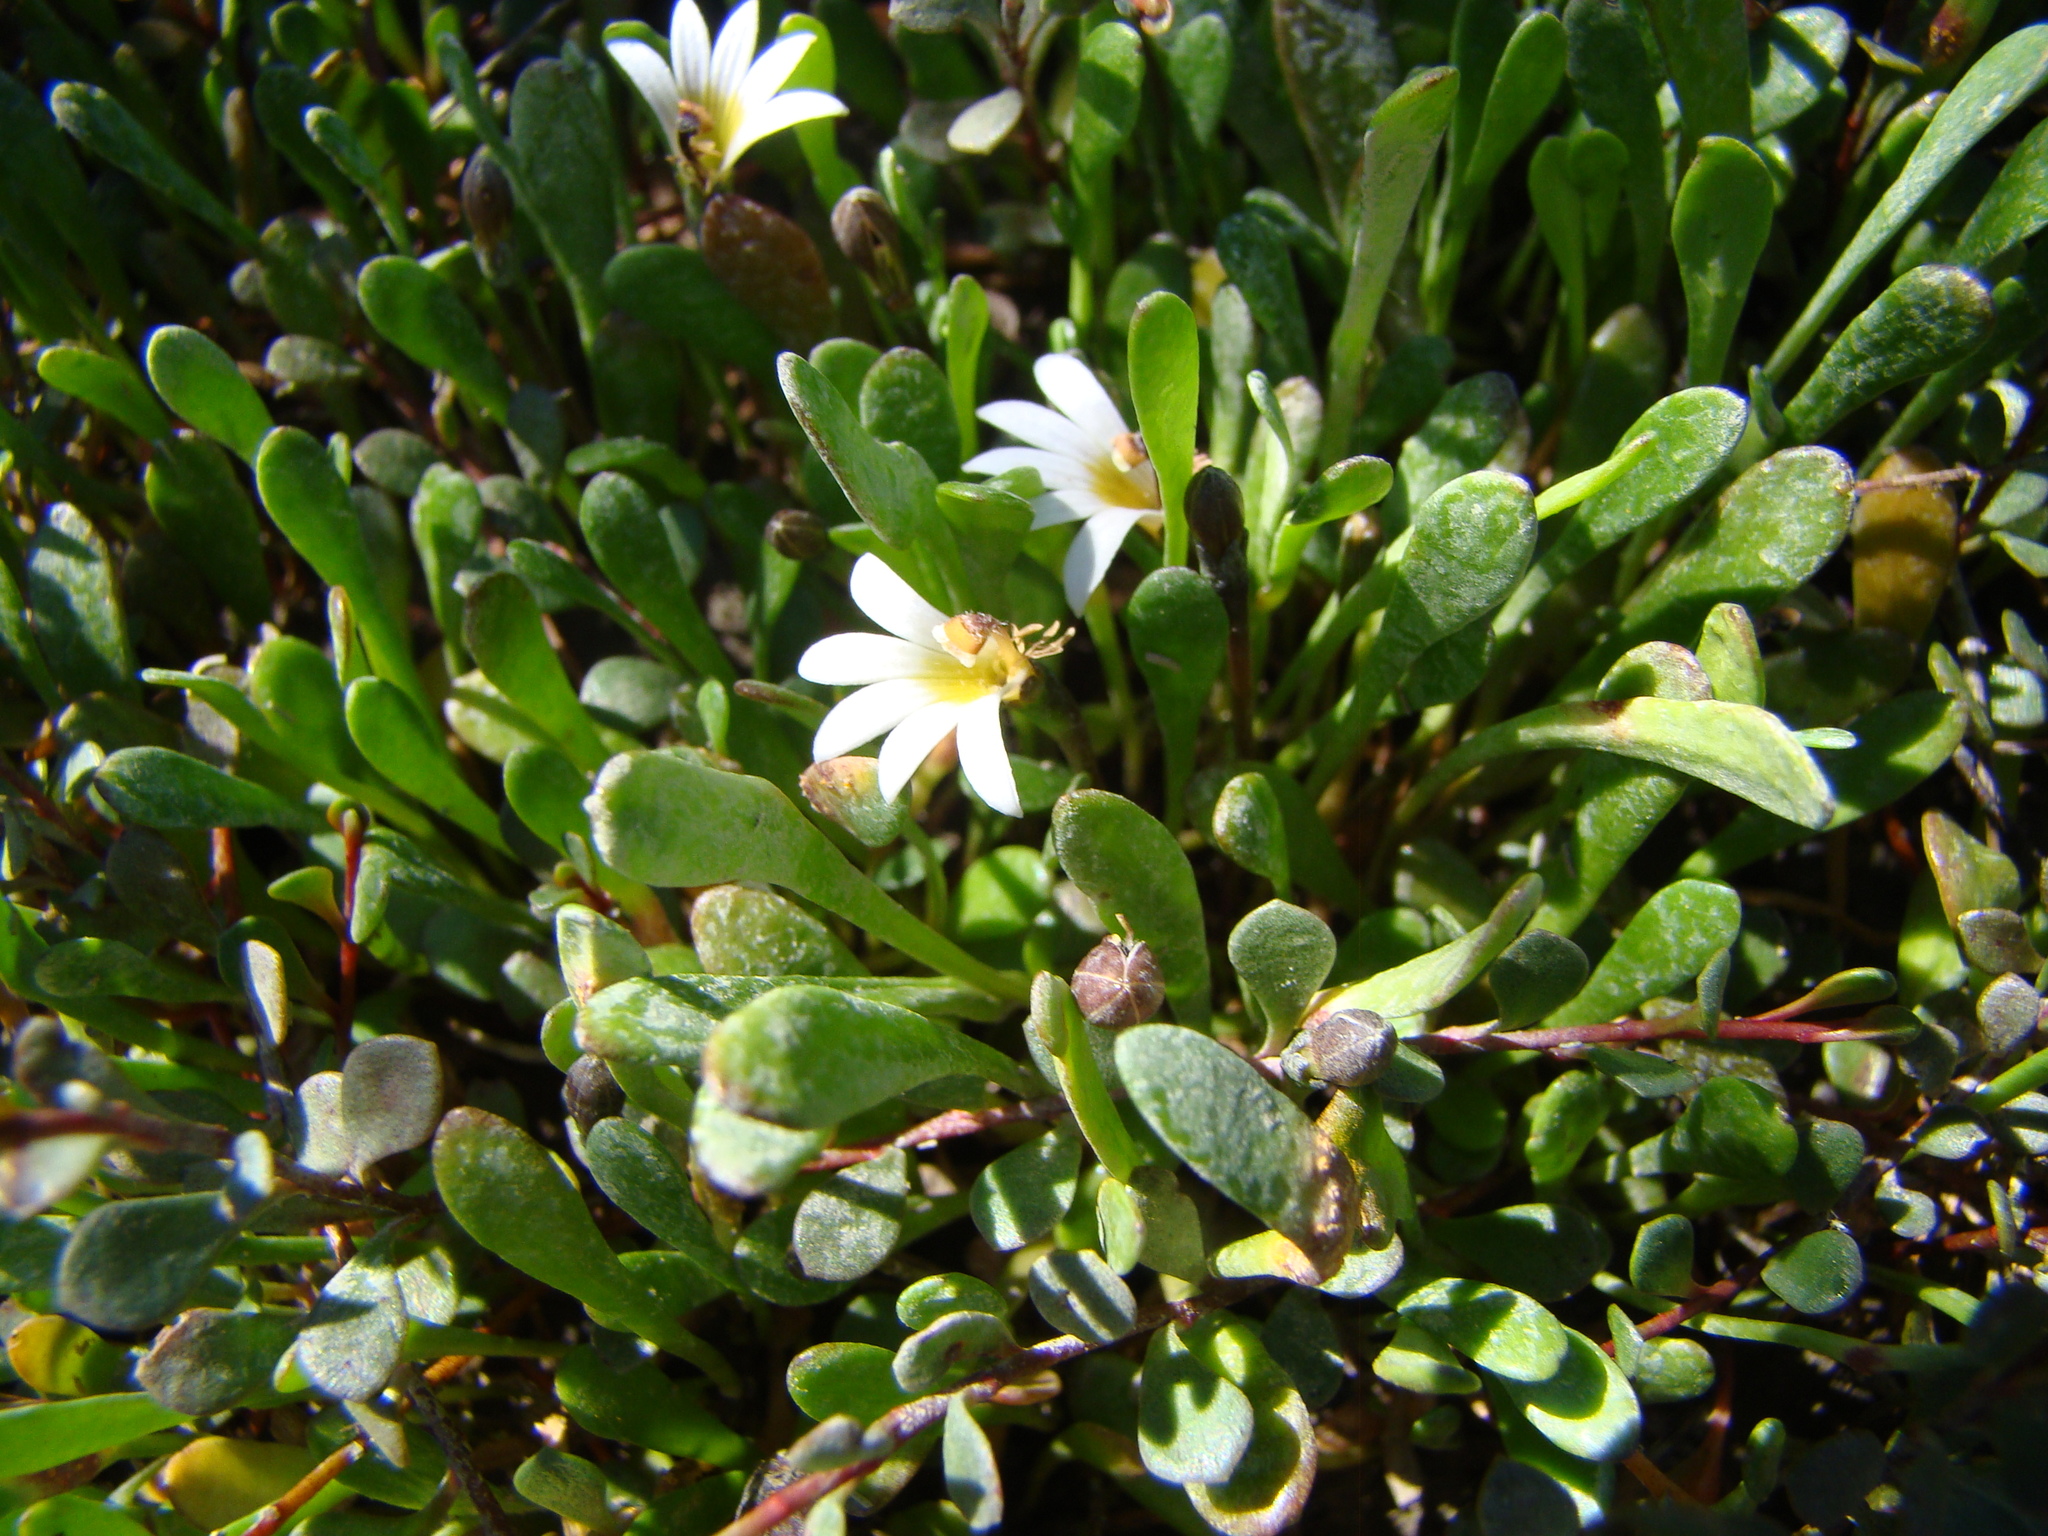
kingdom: Plantae
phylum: Tracheophyta
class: Magnoliopsida
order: Asterales
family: Goodeniaceae
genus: Goodenia
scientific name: Goodenia radicans
